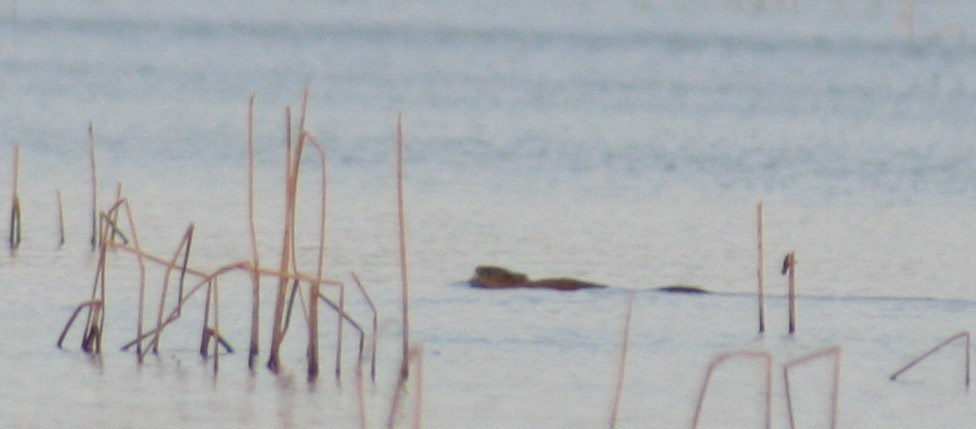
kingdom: Animalia
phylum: Chordata
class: Mammalia
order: Rodentia
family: Cricetidae
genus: Ondatra
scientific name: Ondatra zibethicus
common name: Muskrat
